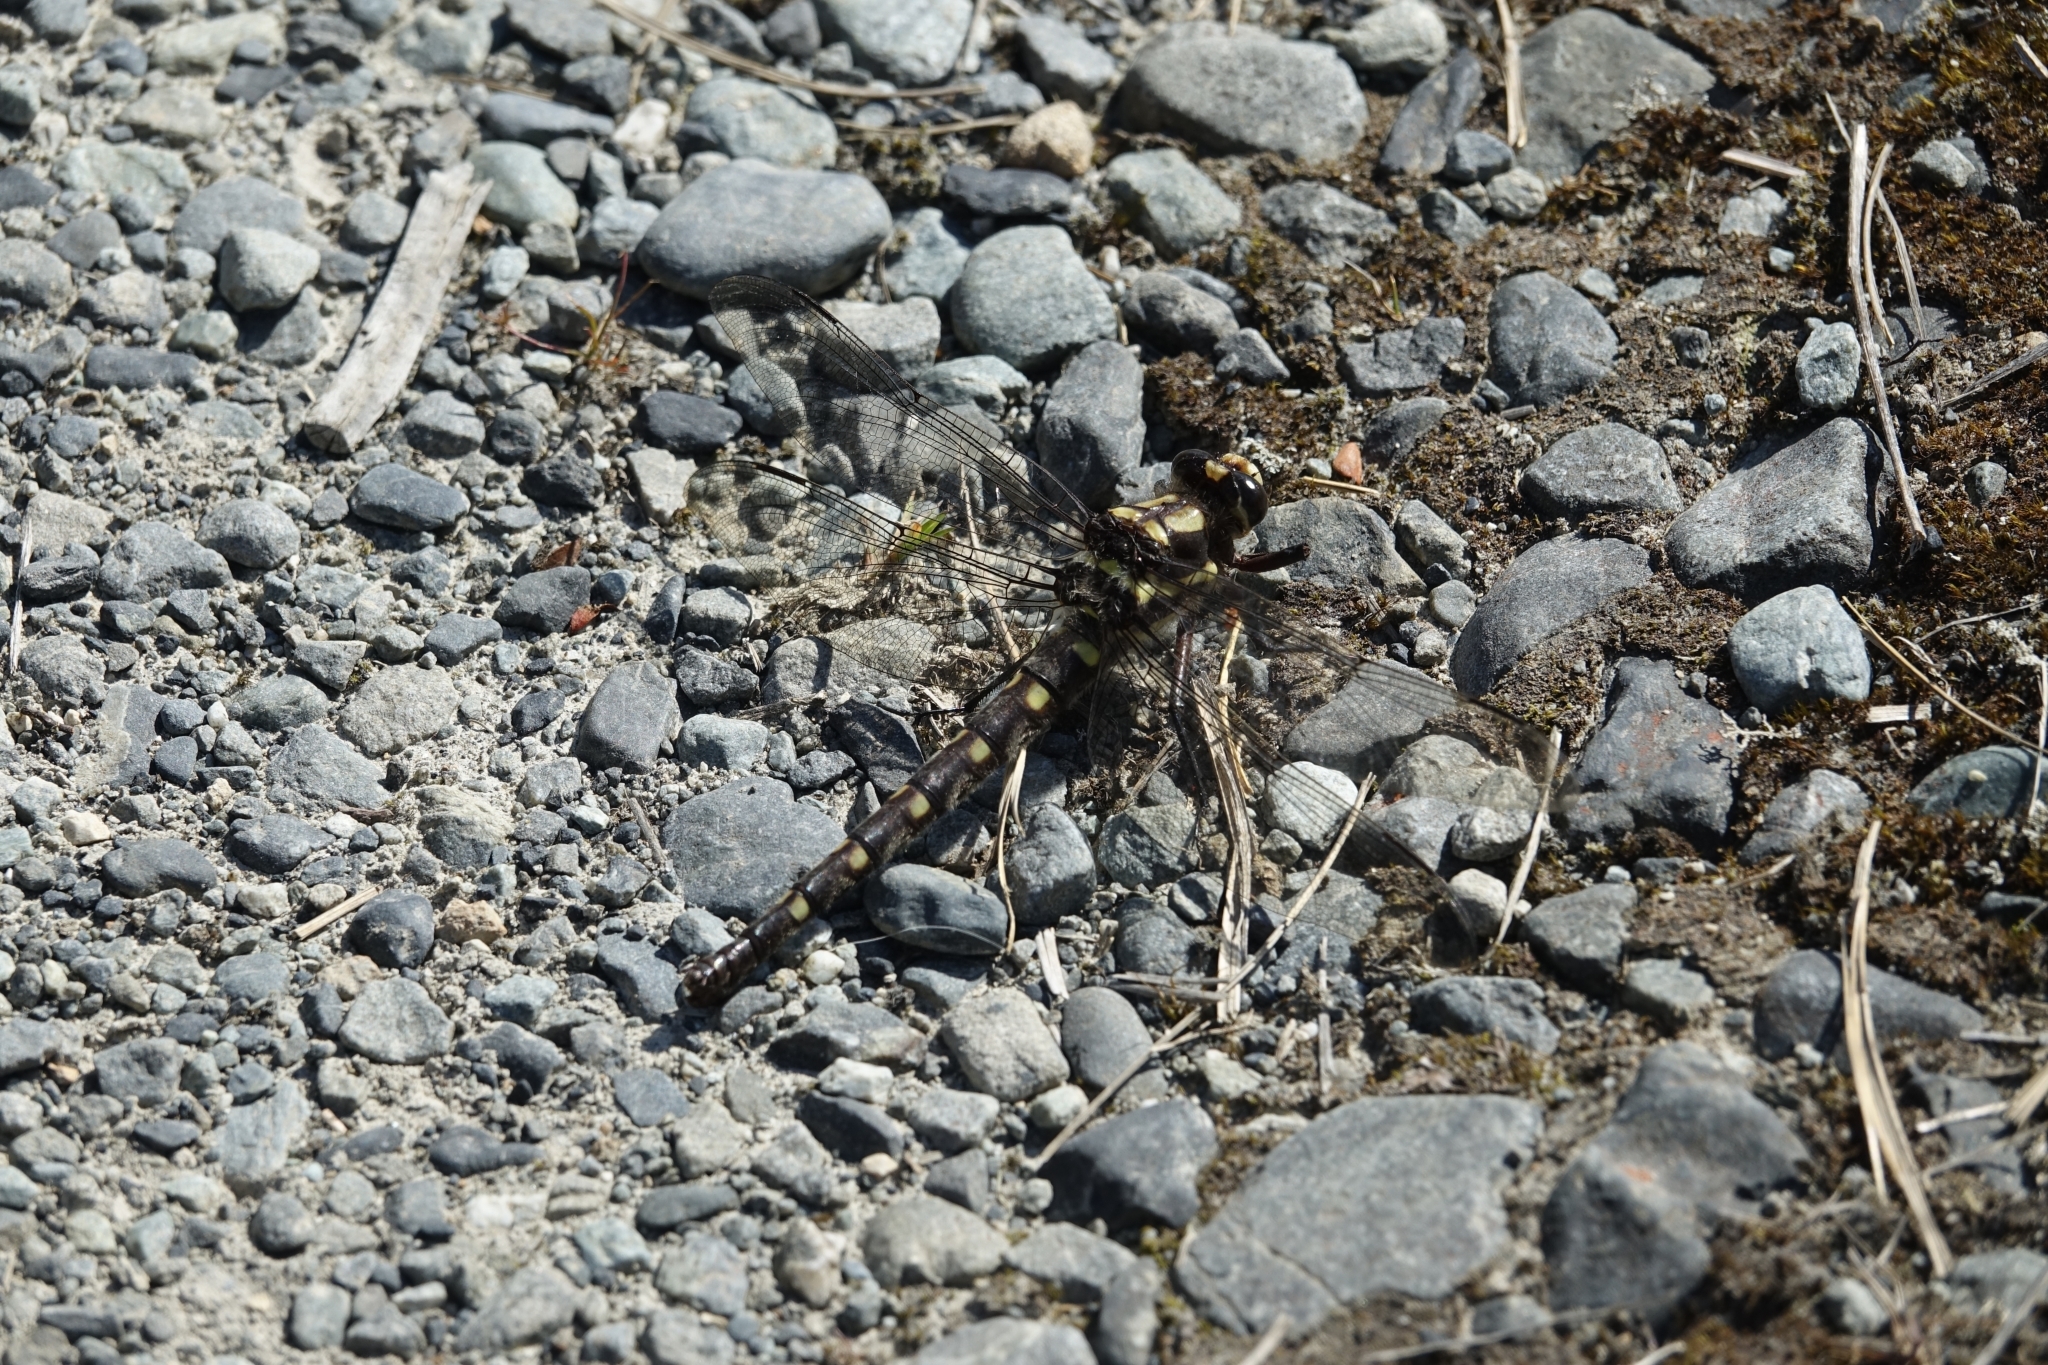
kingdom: Animalia
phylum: Arthropoda
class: Insecta
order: Odonata
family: Petaluridae
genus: Uropetala
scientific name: Uropetala chiltoni
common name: Mountain giant dragonfly
